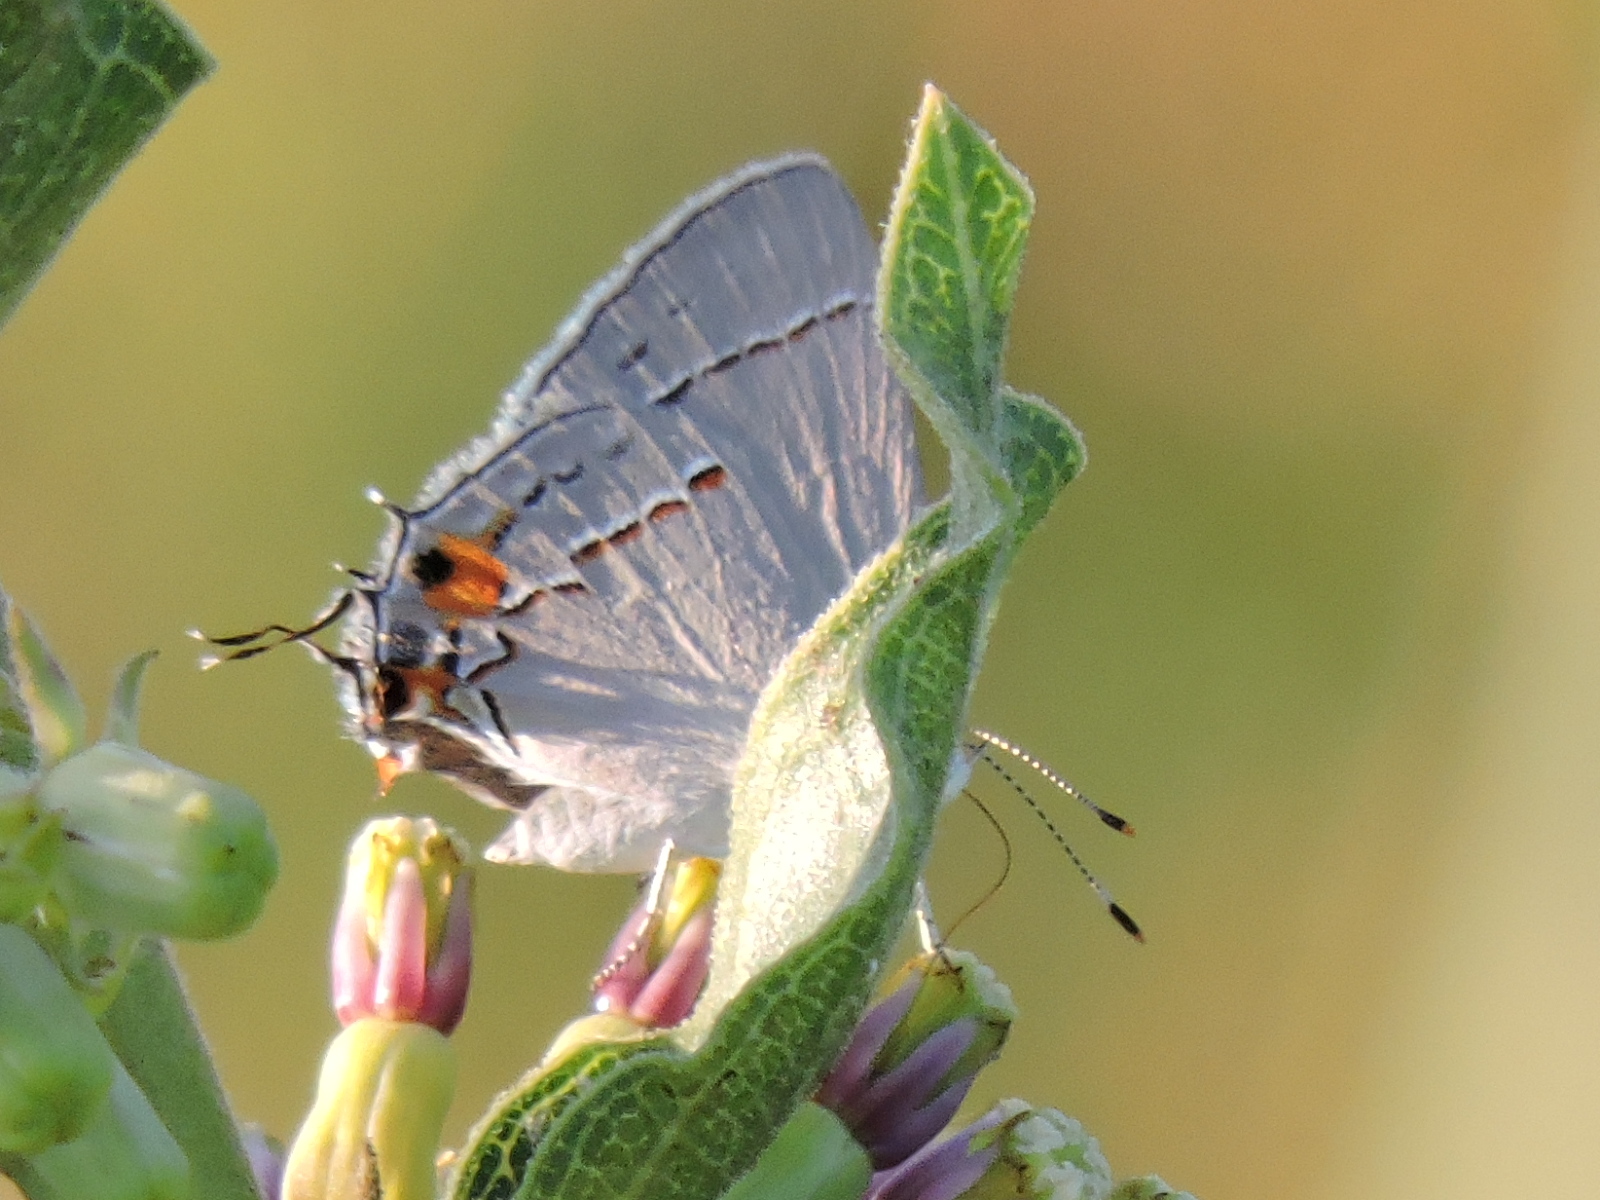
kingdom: Animalia
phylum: Arthropoda
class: Insecta
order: Lepidoptera
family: Lycaenidae
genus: Strymon
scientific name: Strymon melinus
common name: Gray hairstreak
